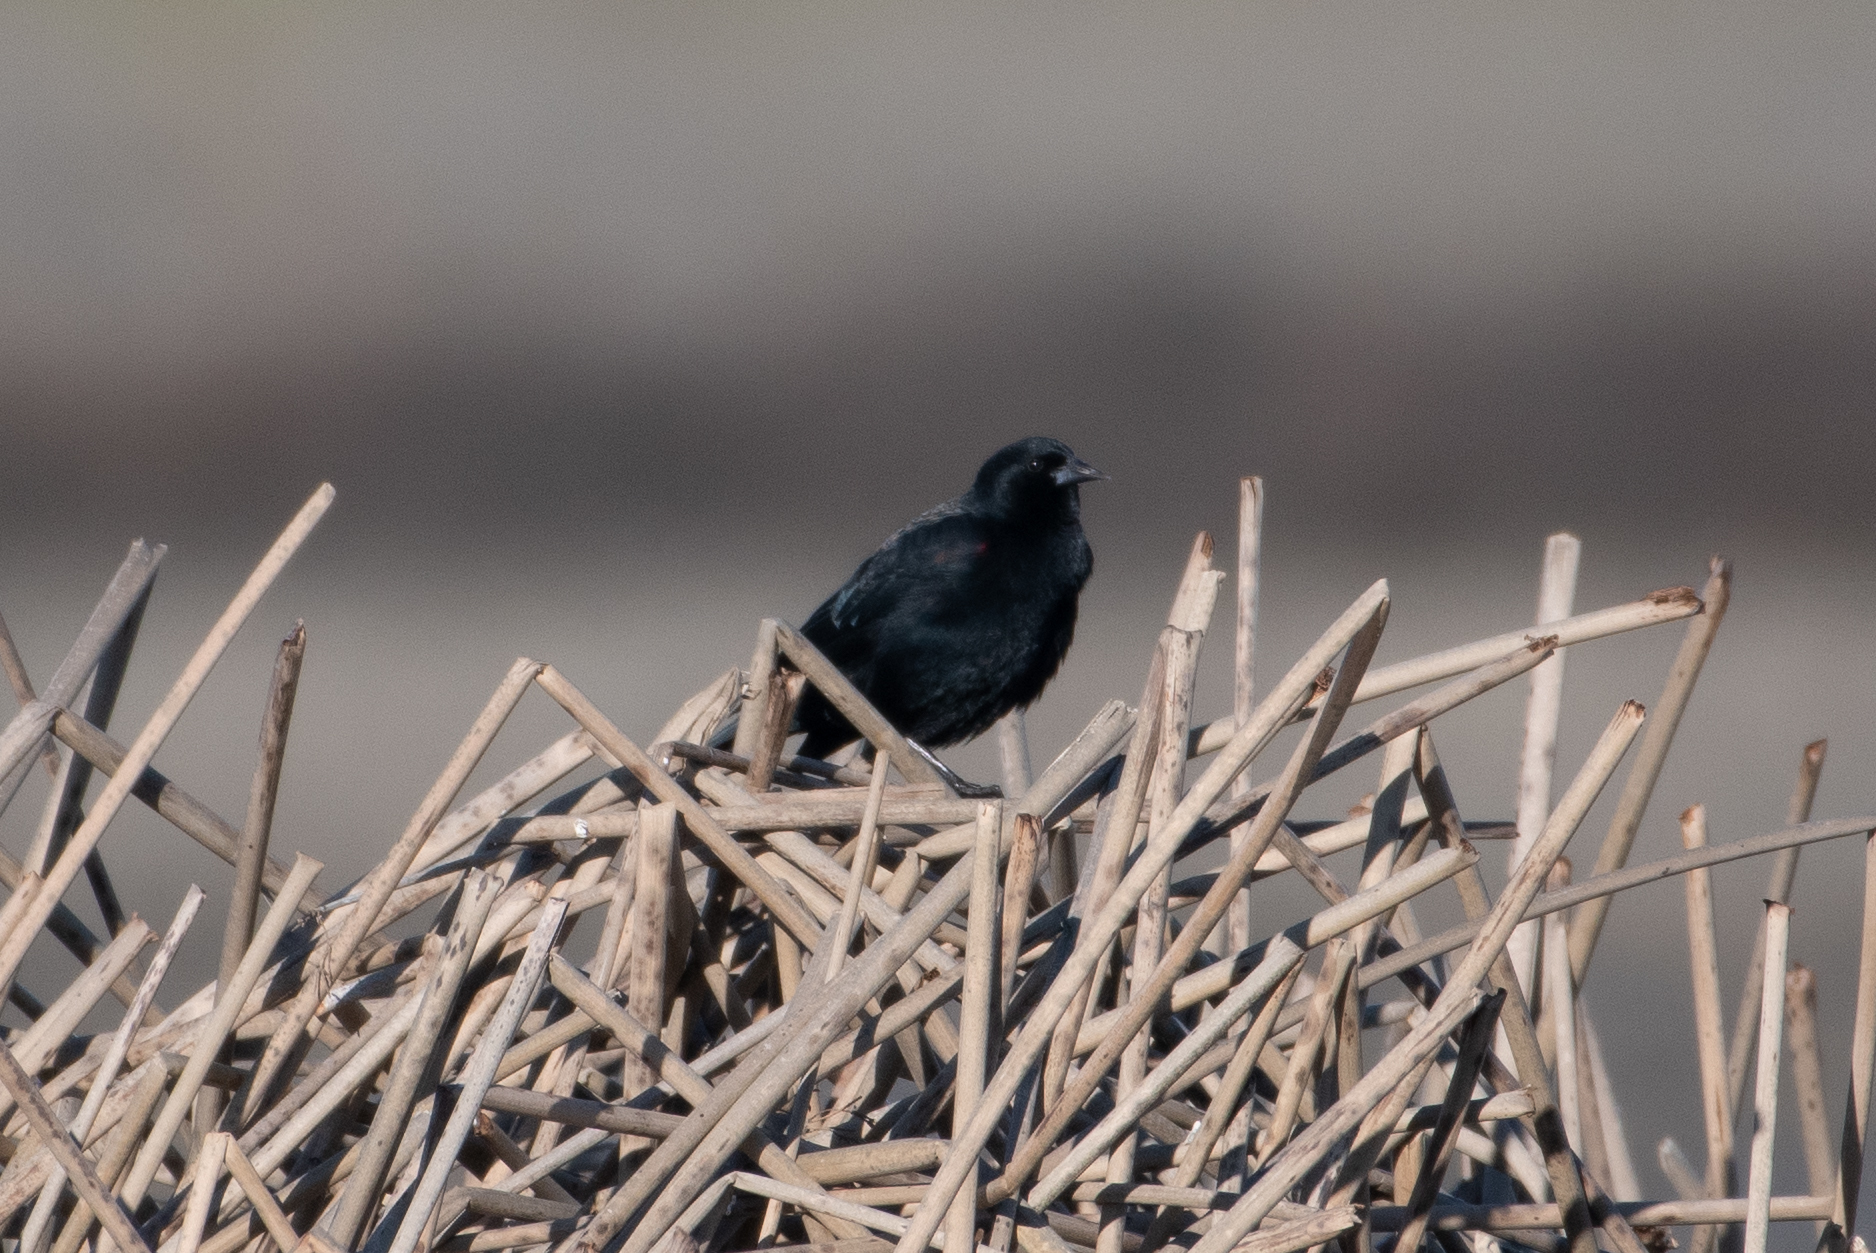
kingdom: Animalia
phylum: Chordata
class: Aves
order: Passeriformes
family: Icteridae
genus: Agelaius
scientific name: Agelaius phoeniceus
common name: Red-winged blackbird
